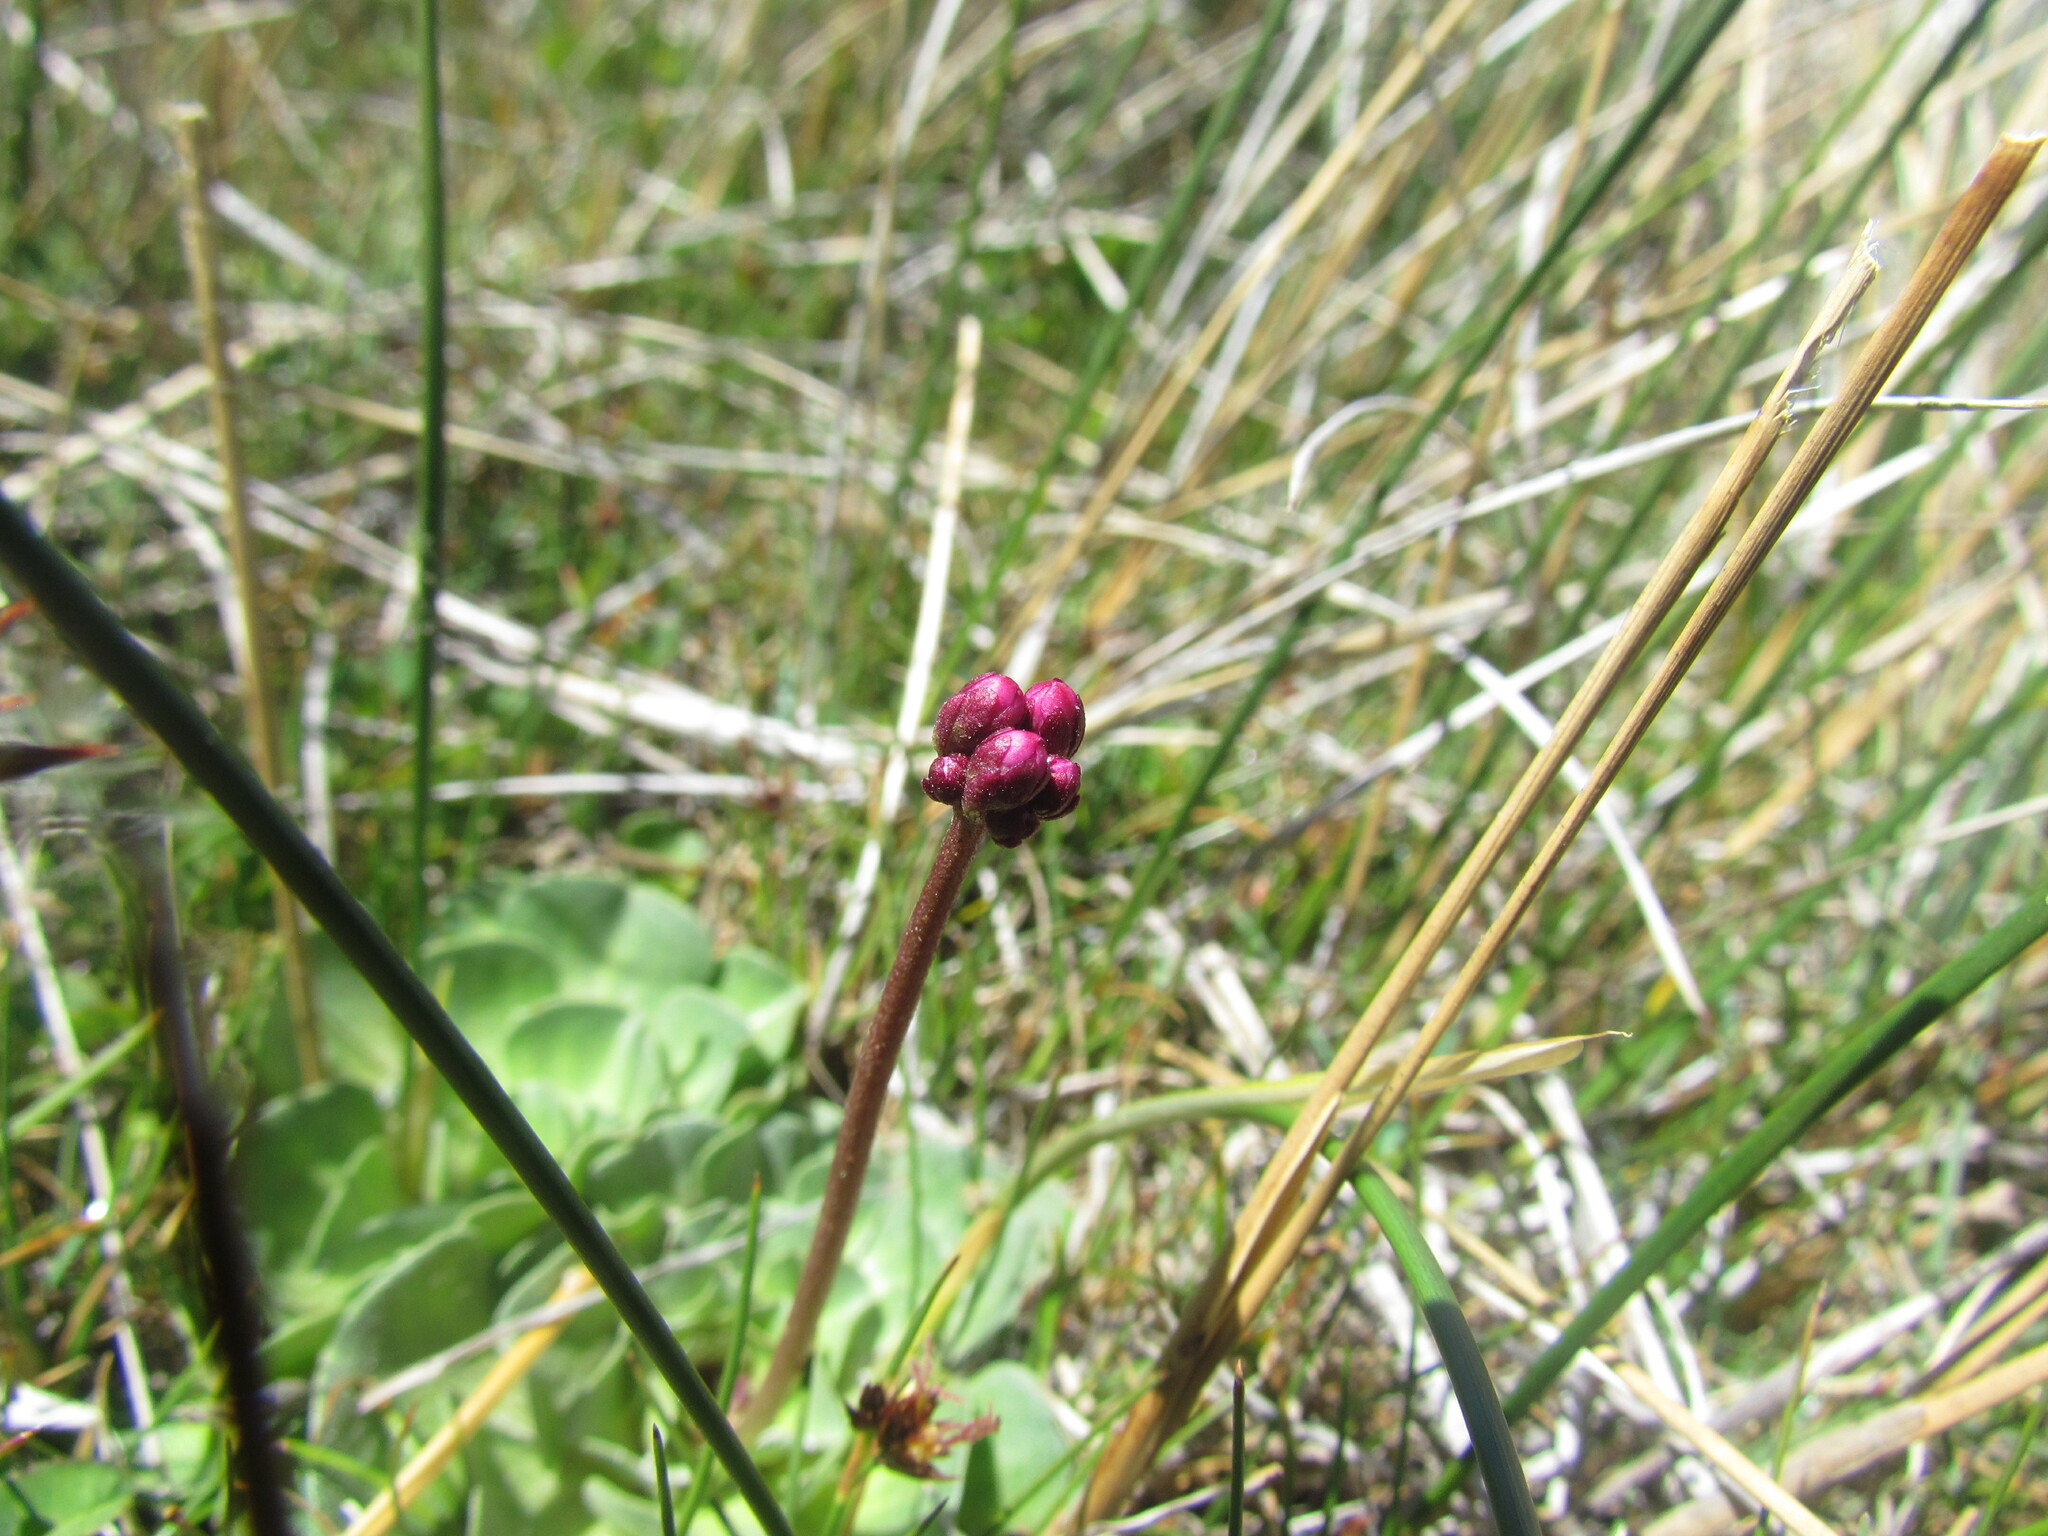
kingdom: Plantae
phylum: Tracheophyta
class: Magnoliopsida
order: Ericales
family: Primulaceae
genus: Samolus
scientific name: Samolus spathulatus
